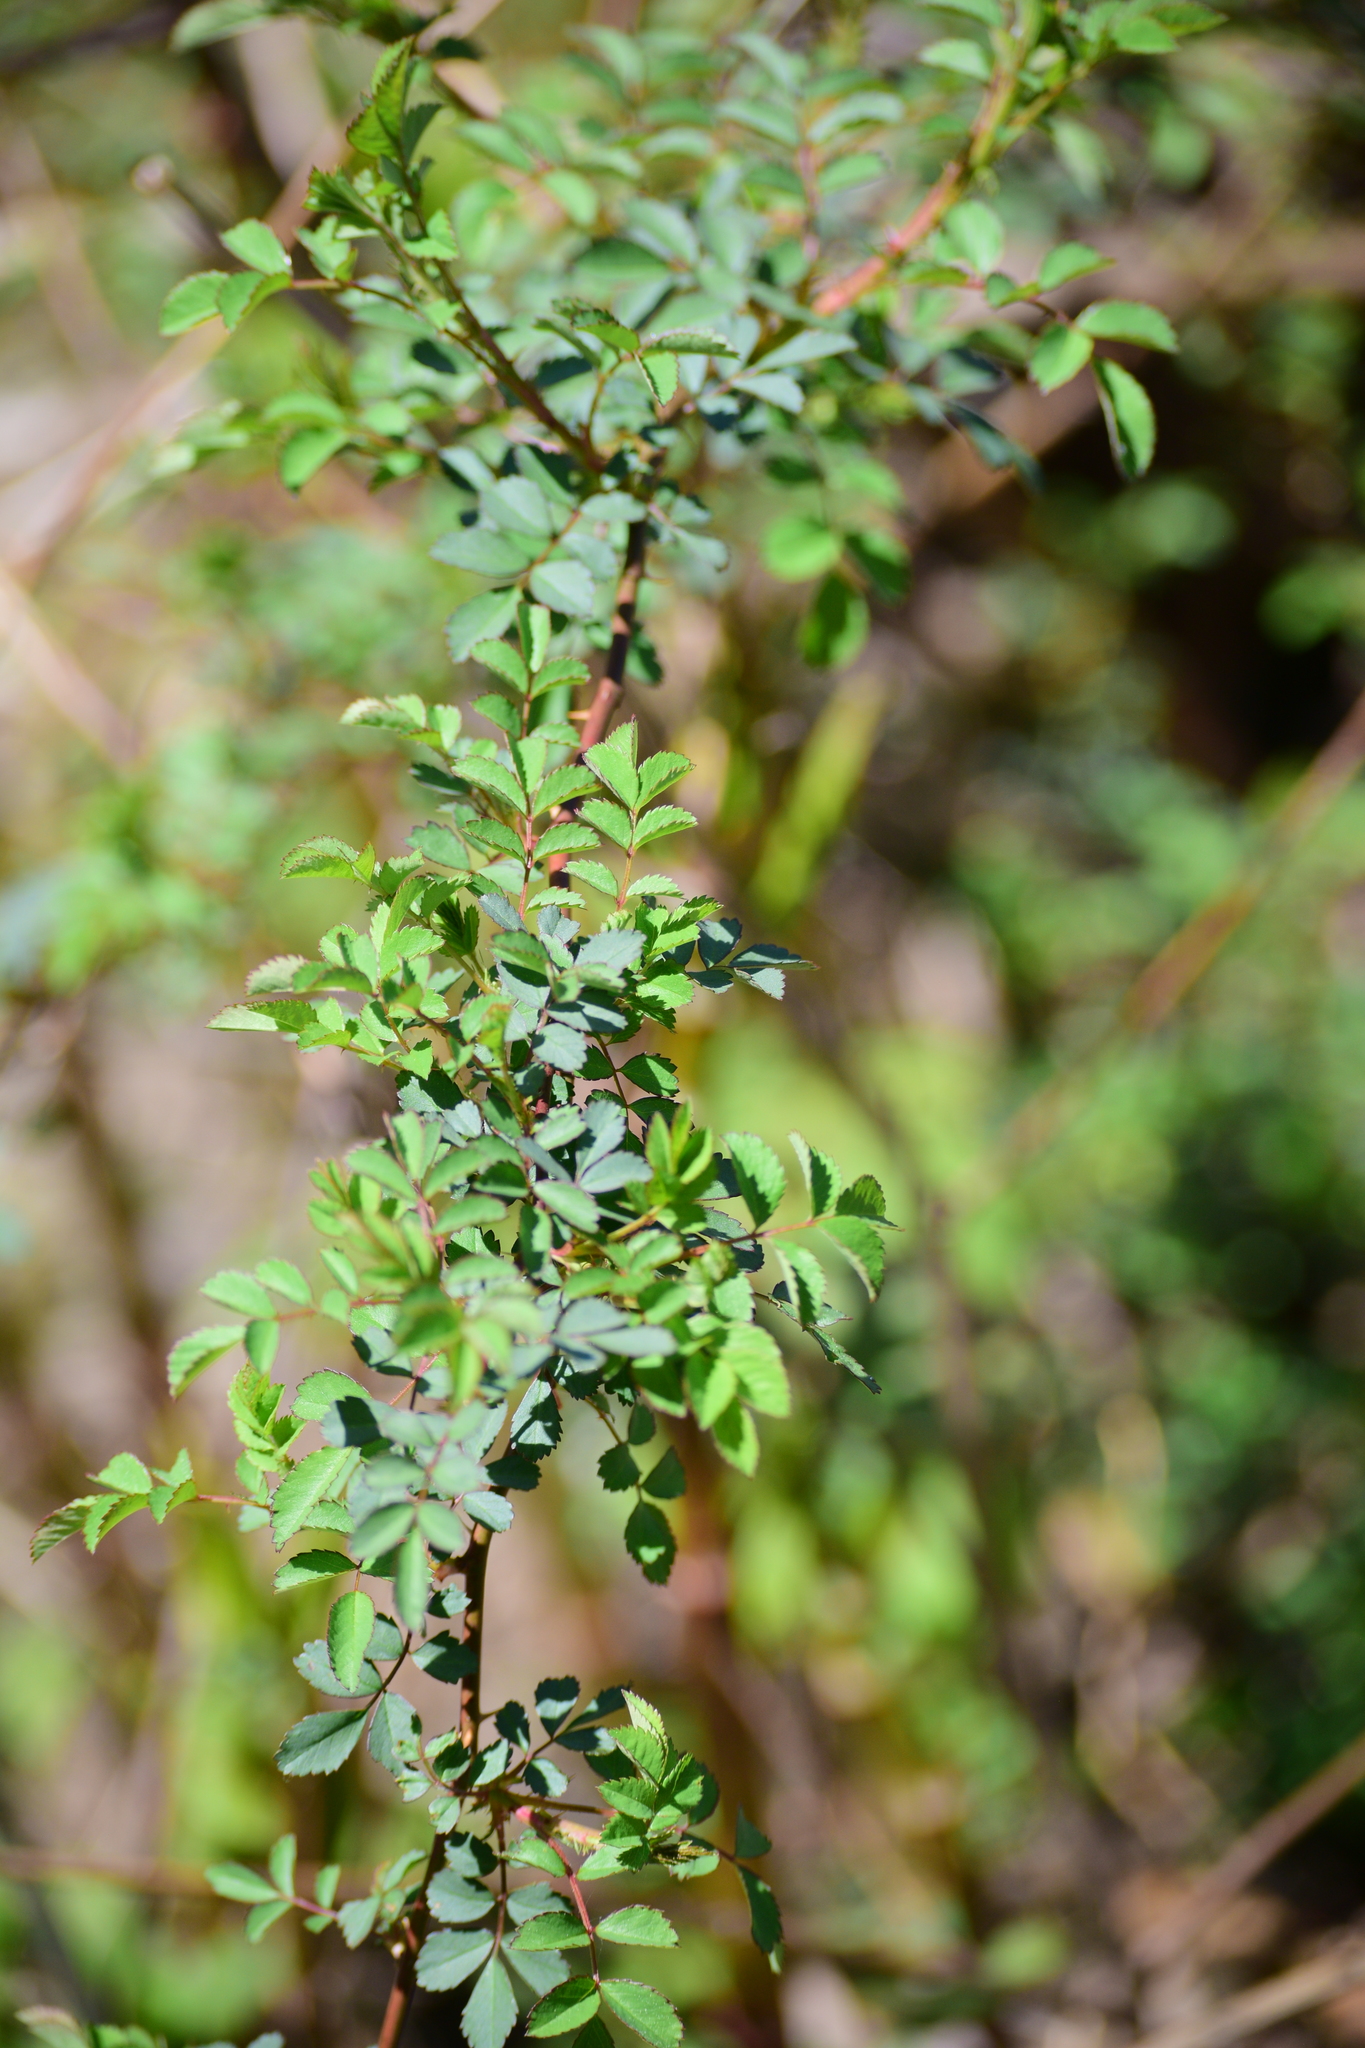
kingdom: Plantae
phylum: Tracheophyta
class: Magnoliopsida
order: Rosales
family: Rosaceae
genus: Rosa
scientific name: Rosa multiflora
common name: Multiflora rose
